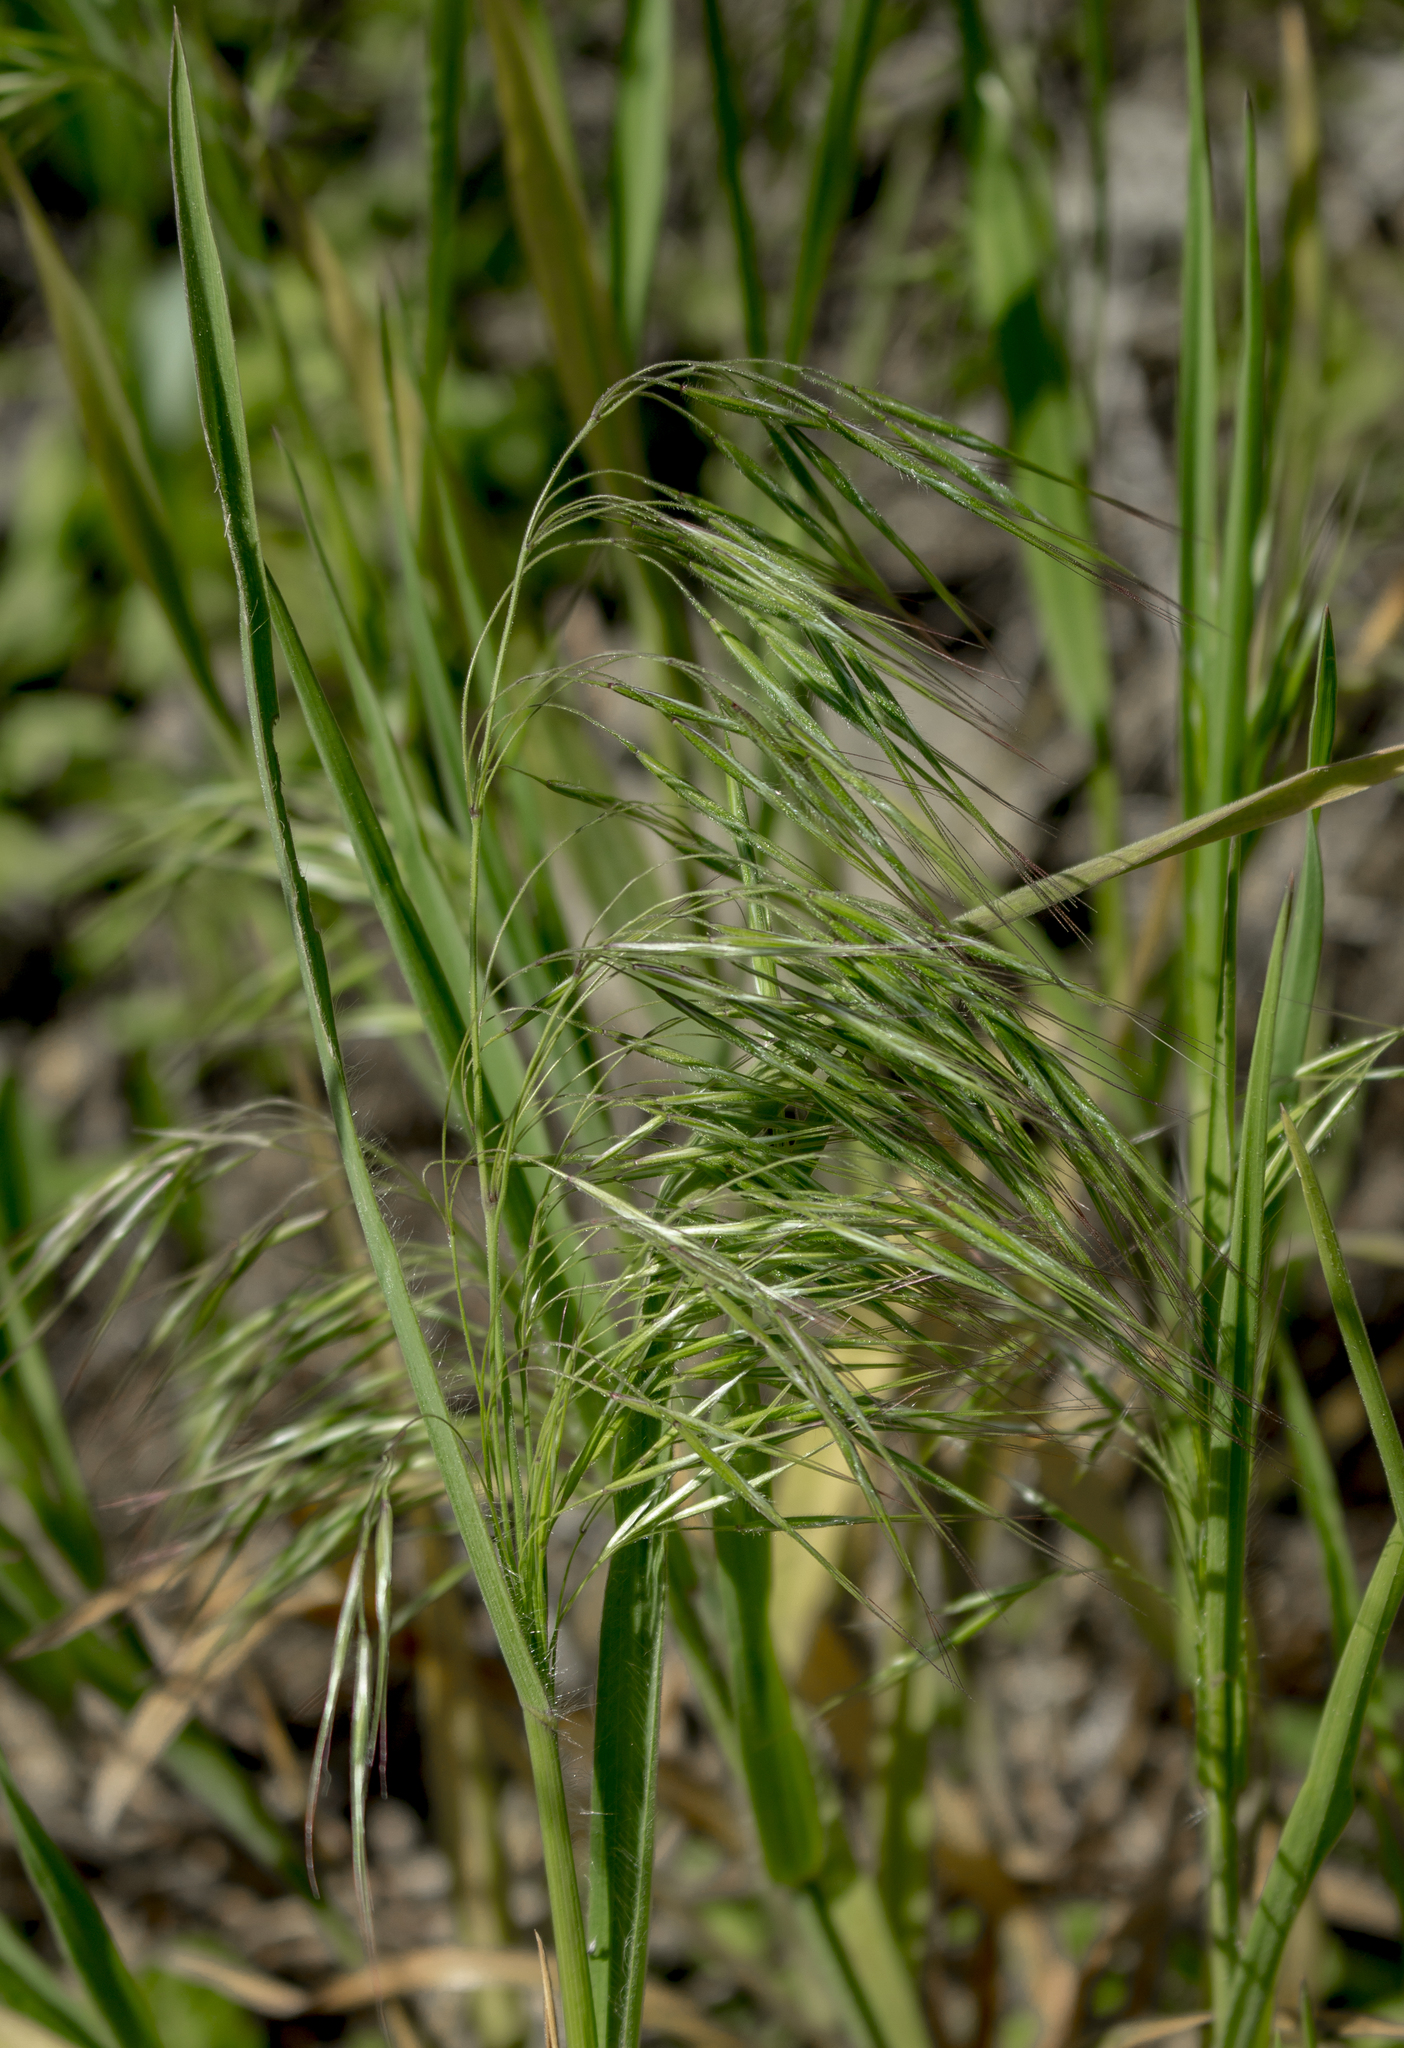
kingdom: Plantae
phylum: Tracheophyta
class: Liliopsida
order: Poales
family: Poaceae
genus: Bromus
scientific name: Bromus tectorum
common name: Cheatgrass
